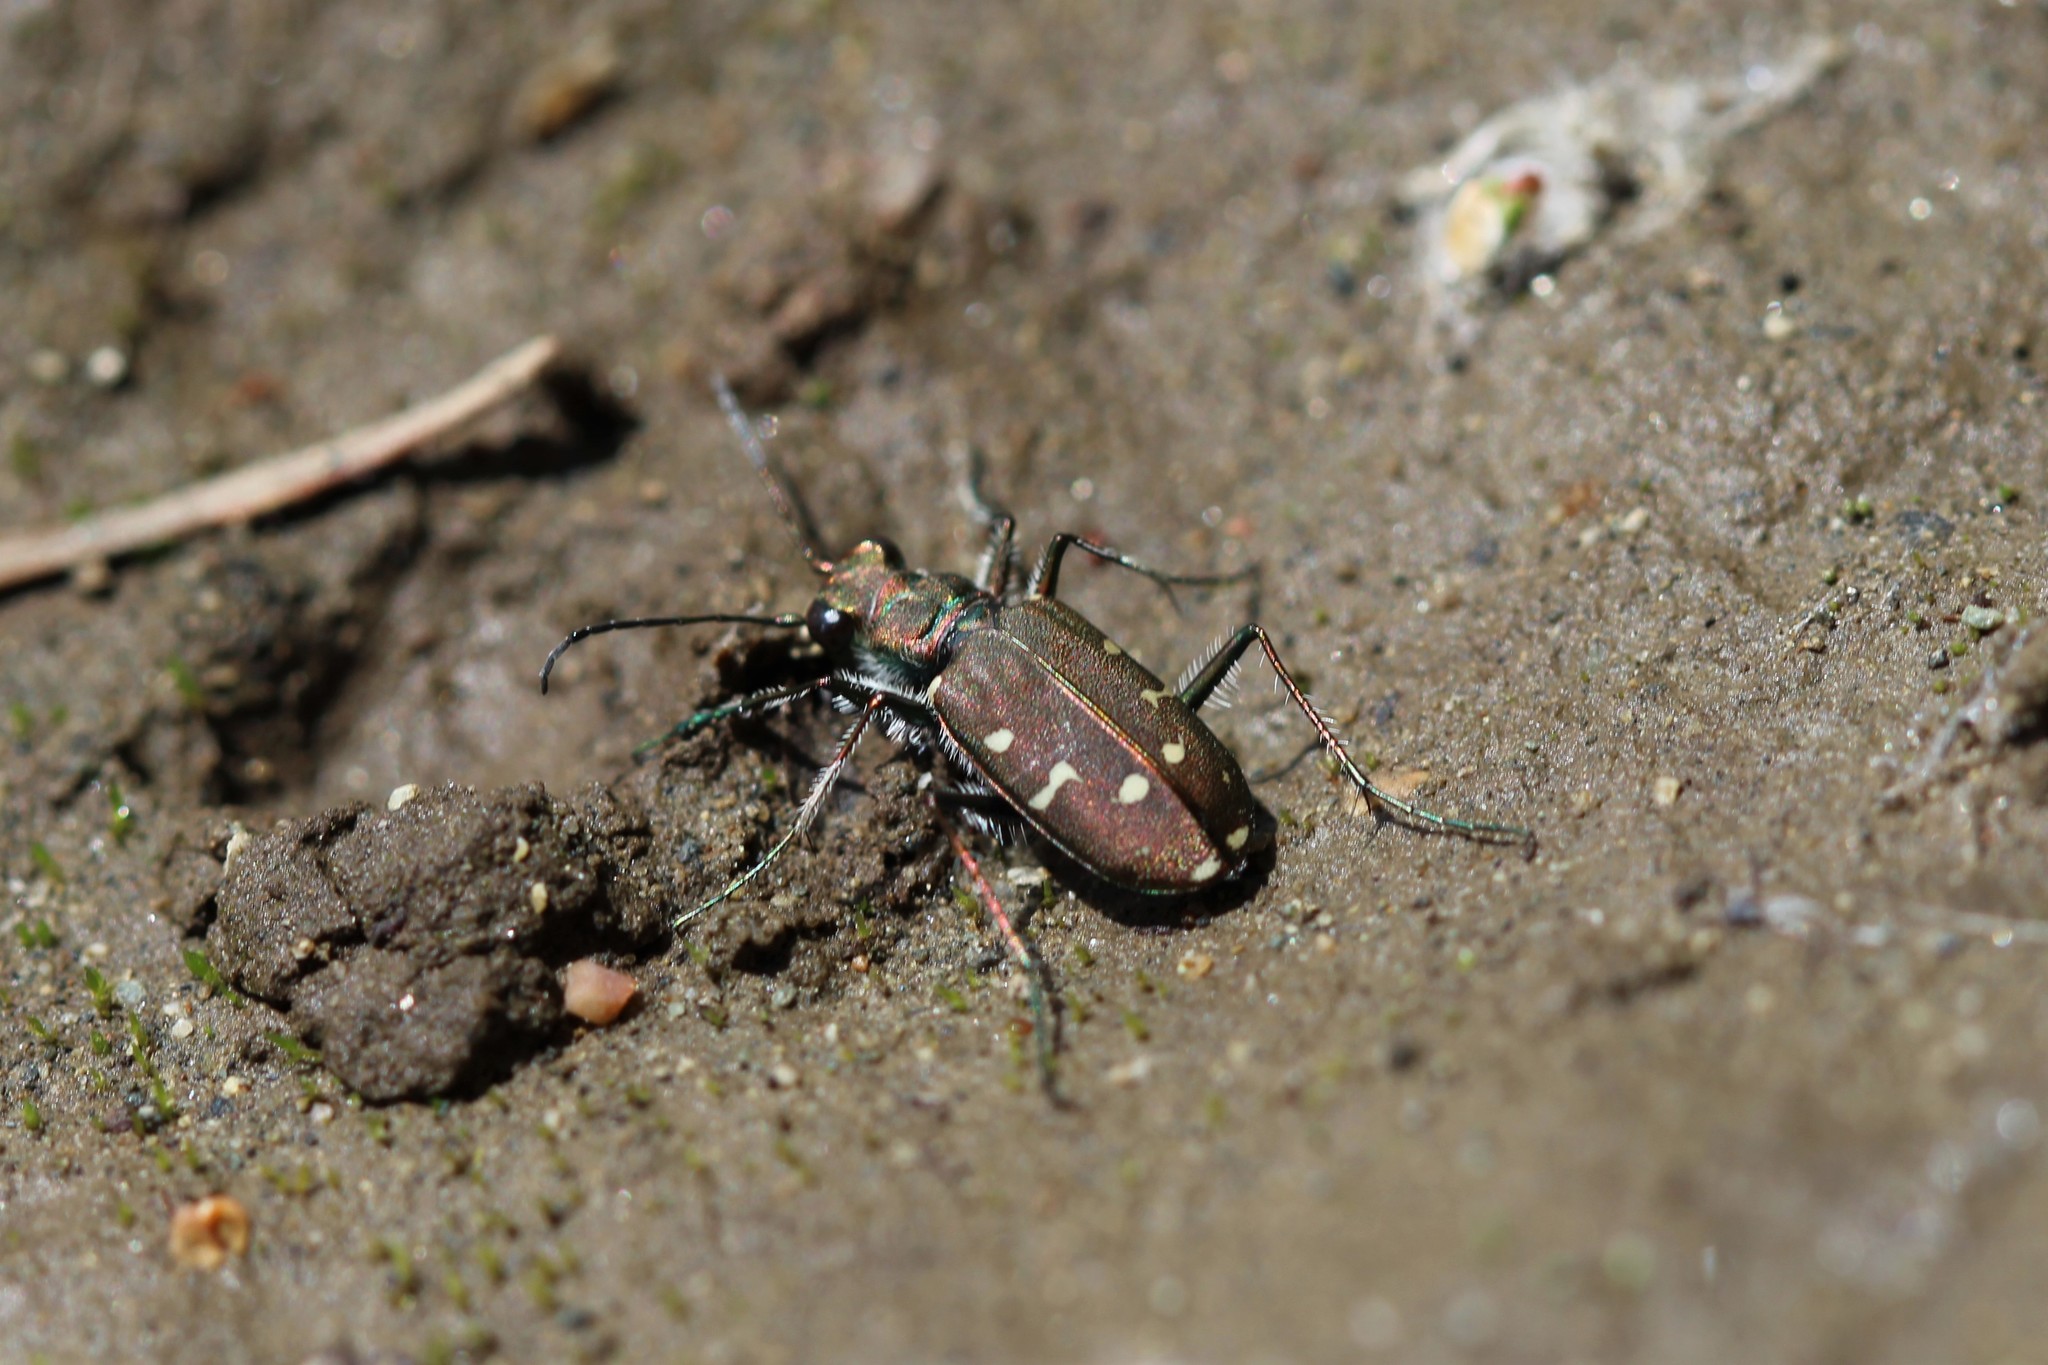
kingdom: Animalia
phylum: Arthropoda
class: Insecta
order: Coleoptera
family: Carabidae
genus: Cicindela
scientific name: Cicindela oregona
